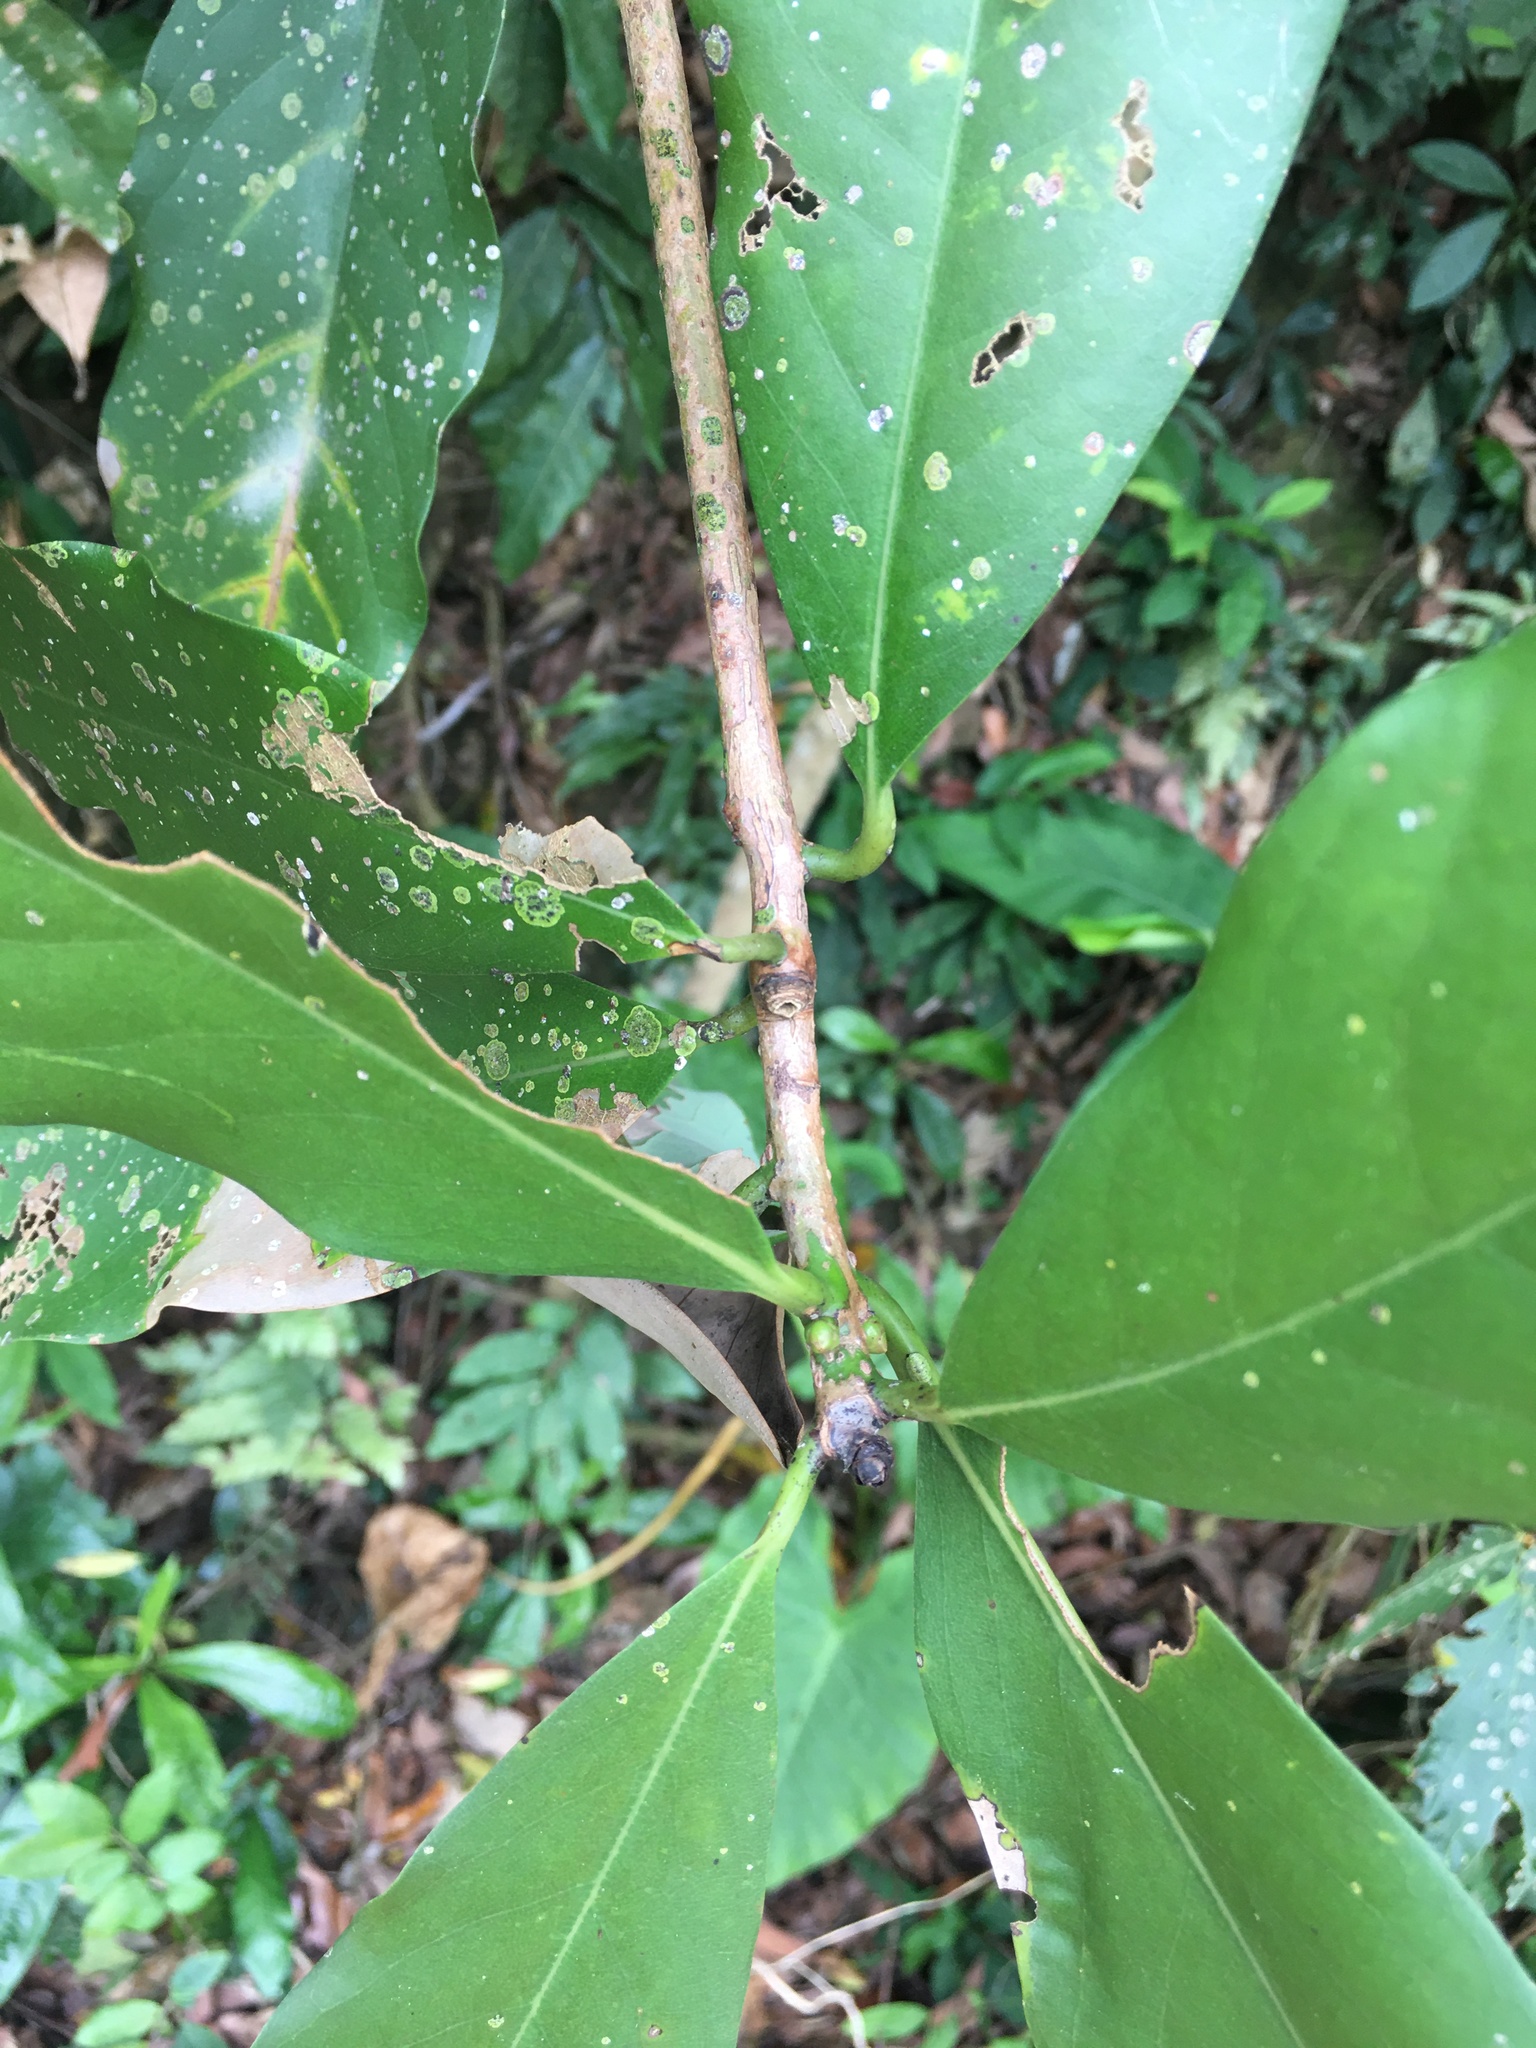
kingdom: Plantae
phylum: Tracheophyta
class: Magnoliopsida
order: Laurales
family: Lauraceae
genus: Machilus
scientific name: Machilus japonica
